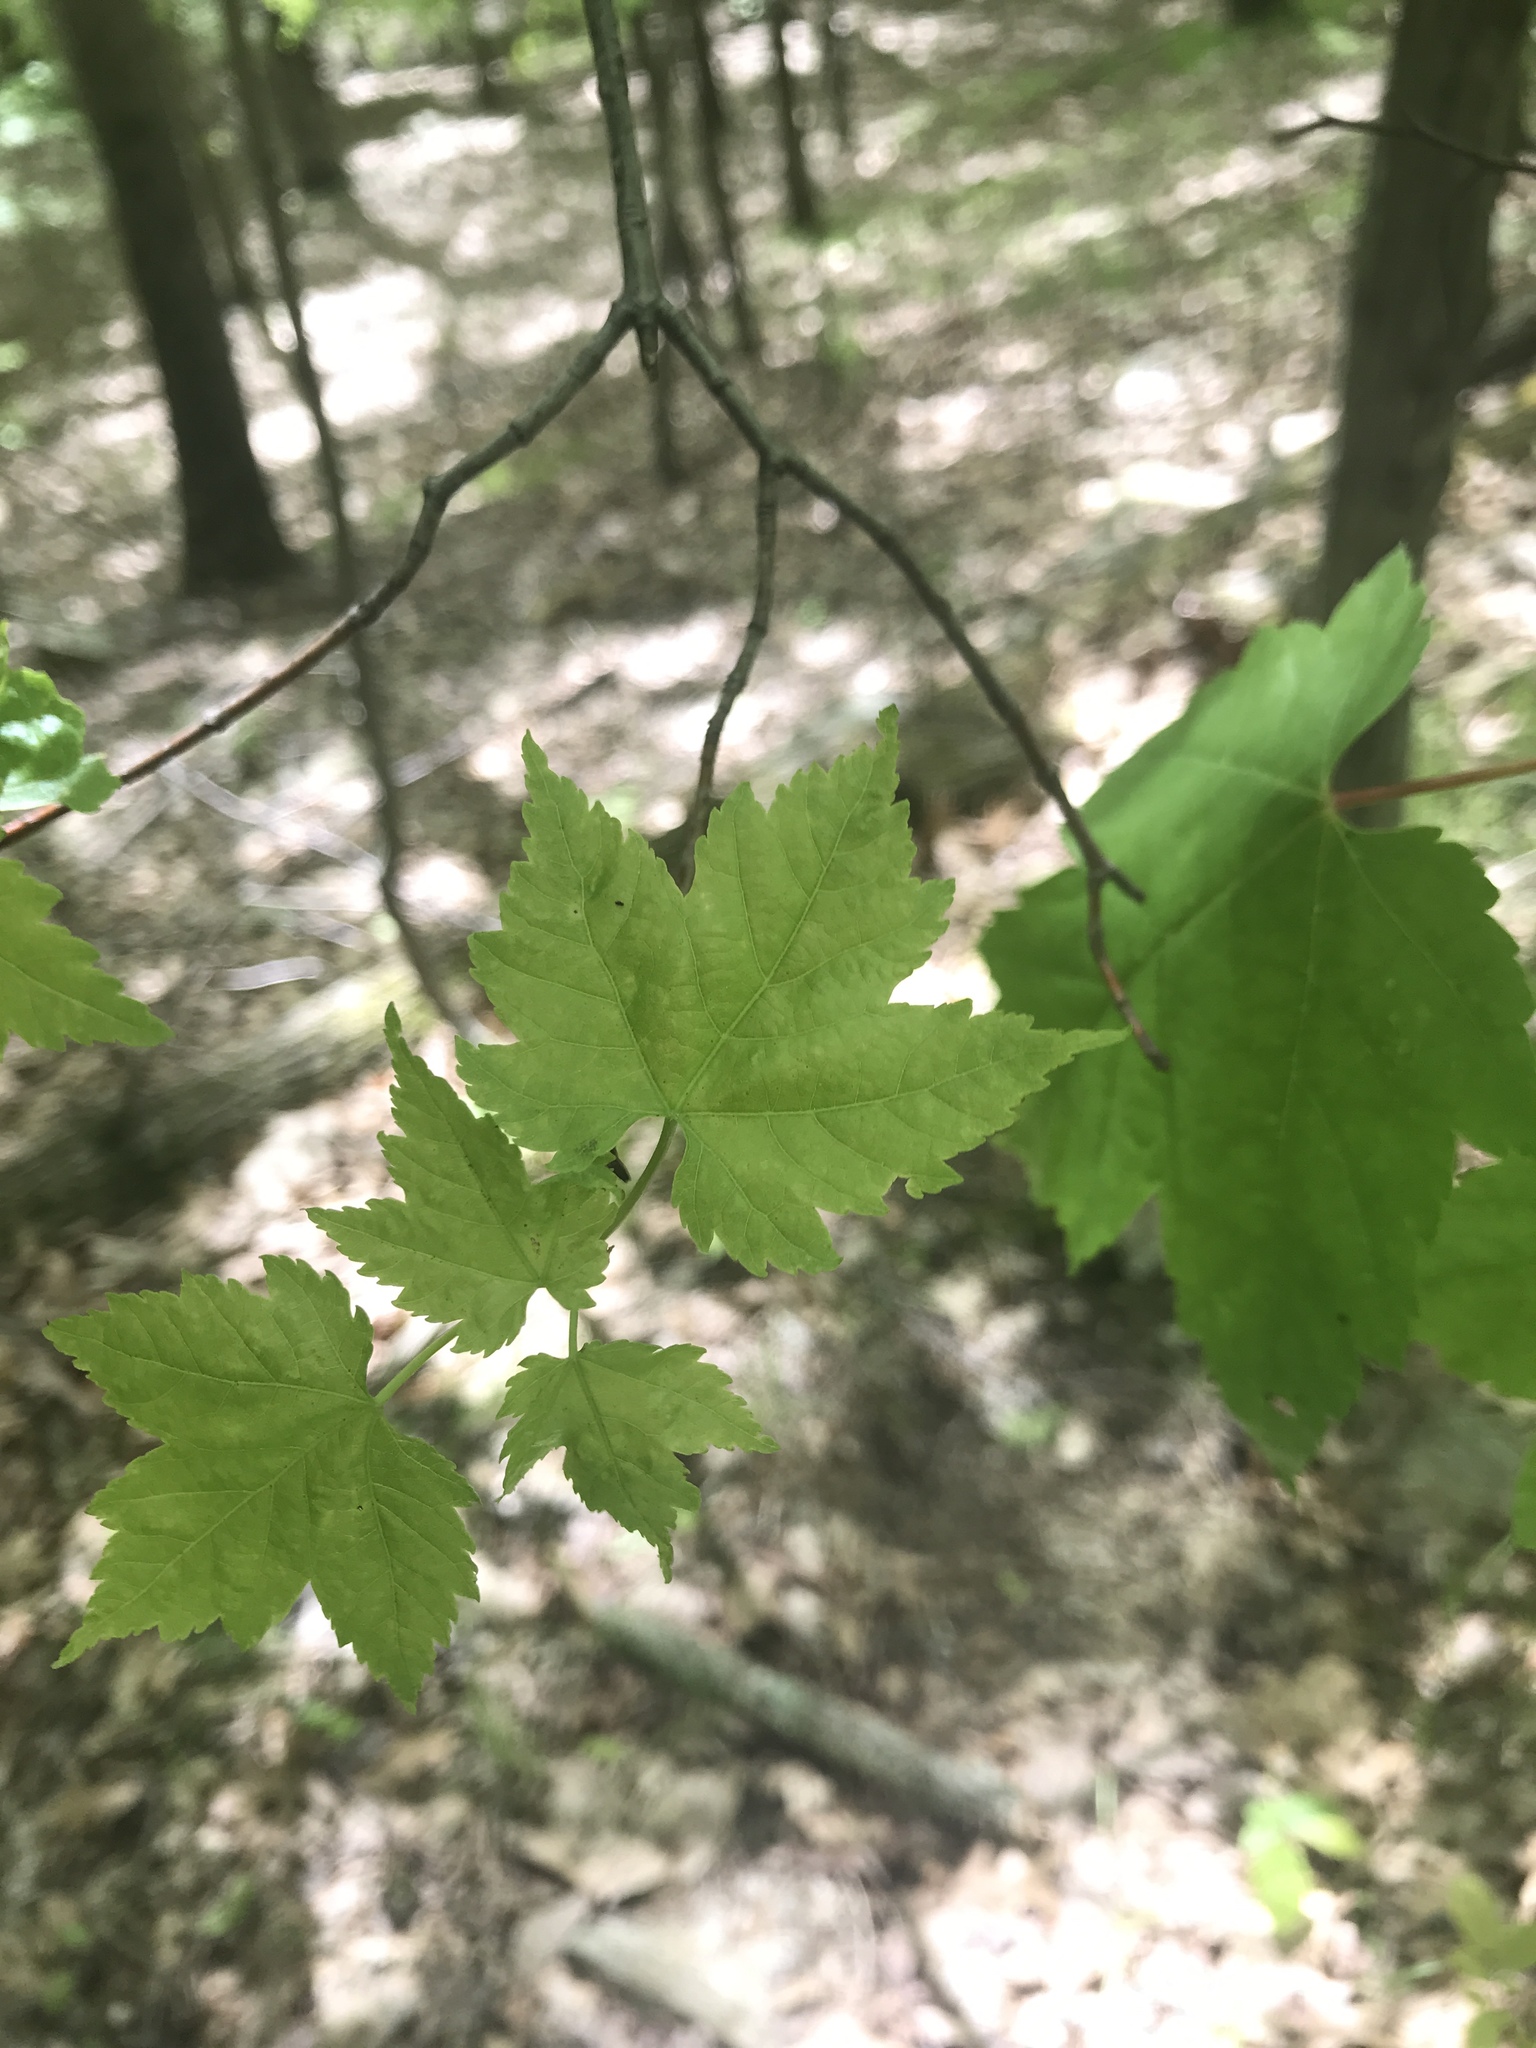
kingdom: Plantae
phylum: Tracheophyta
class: Magnoliopsida
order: Sapindales
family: Sapindaceae
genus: Acer
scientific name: Acer rubrum
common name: Red maple
